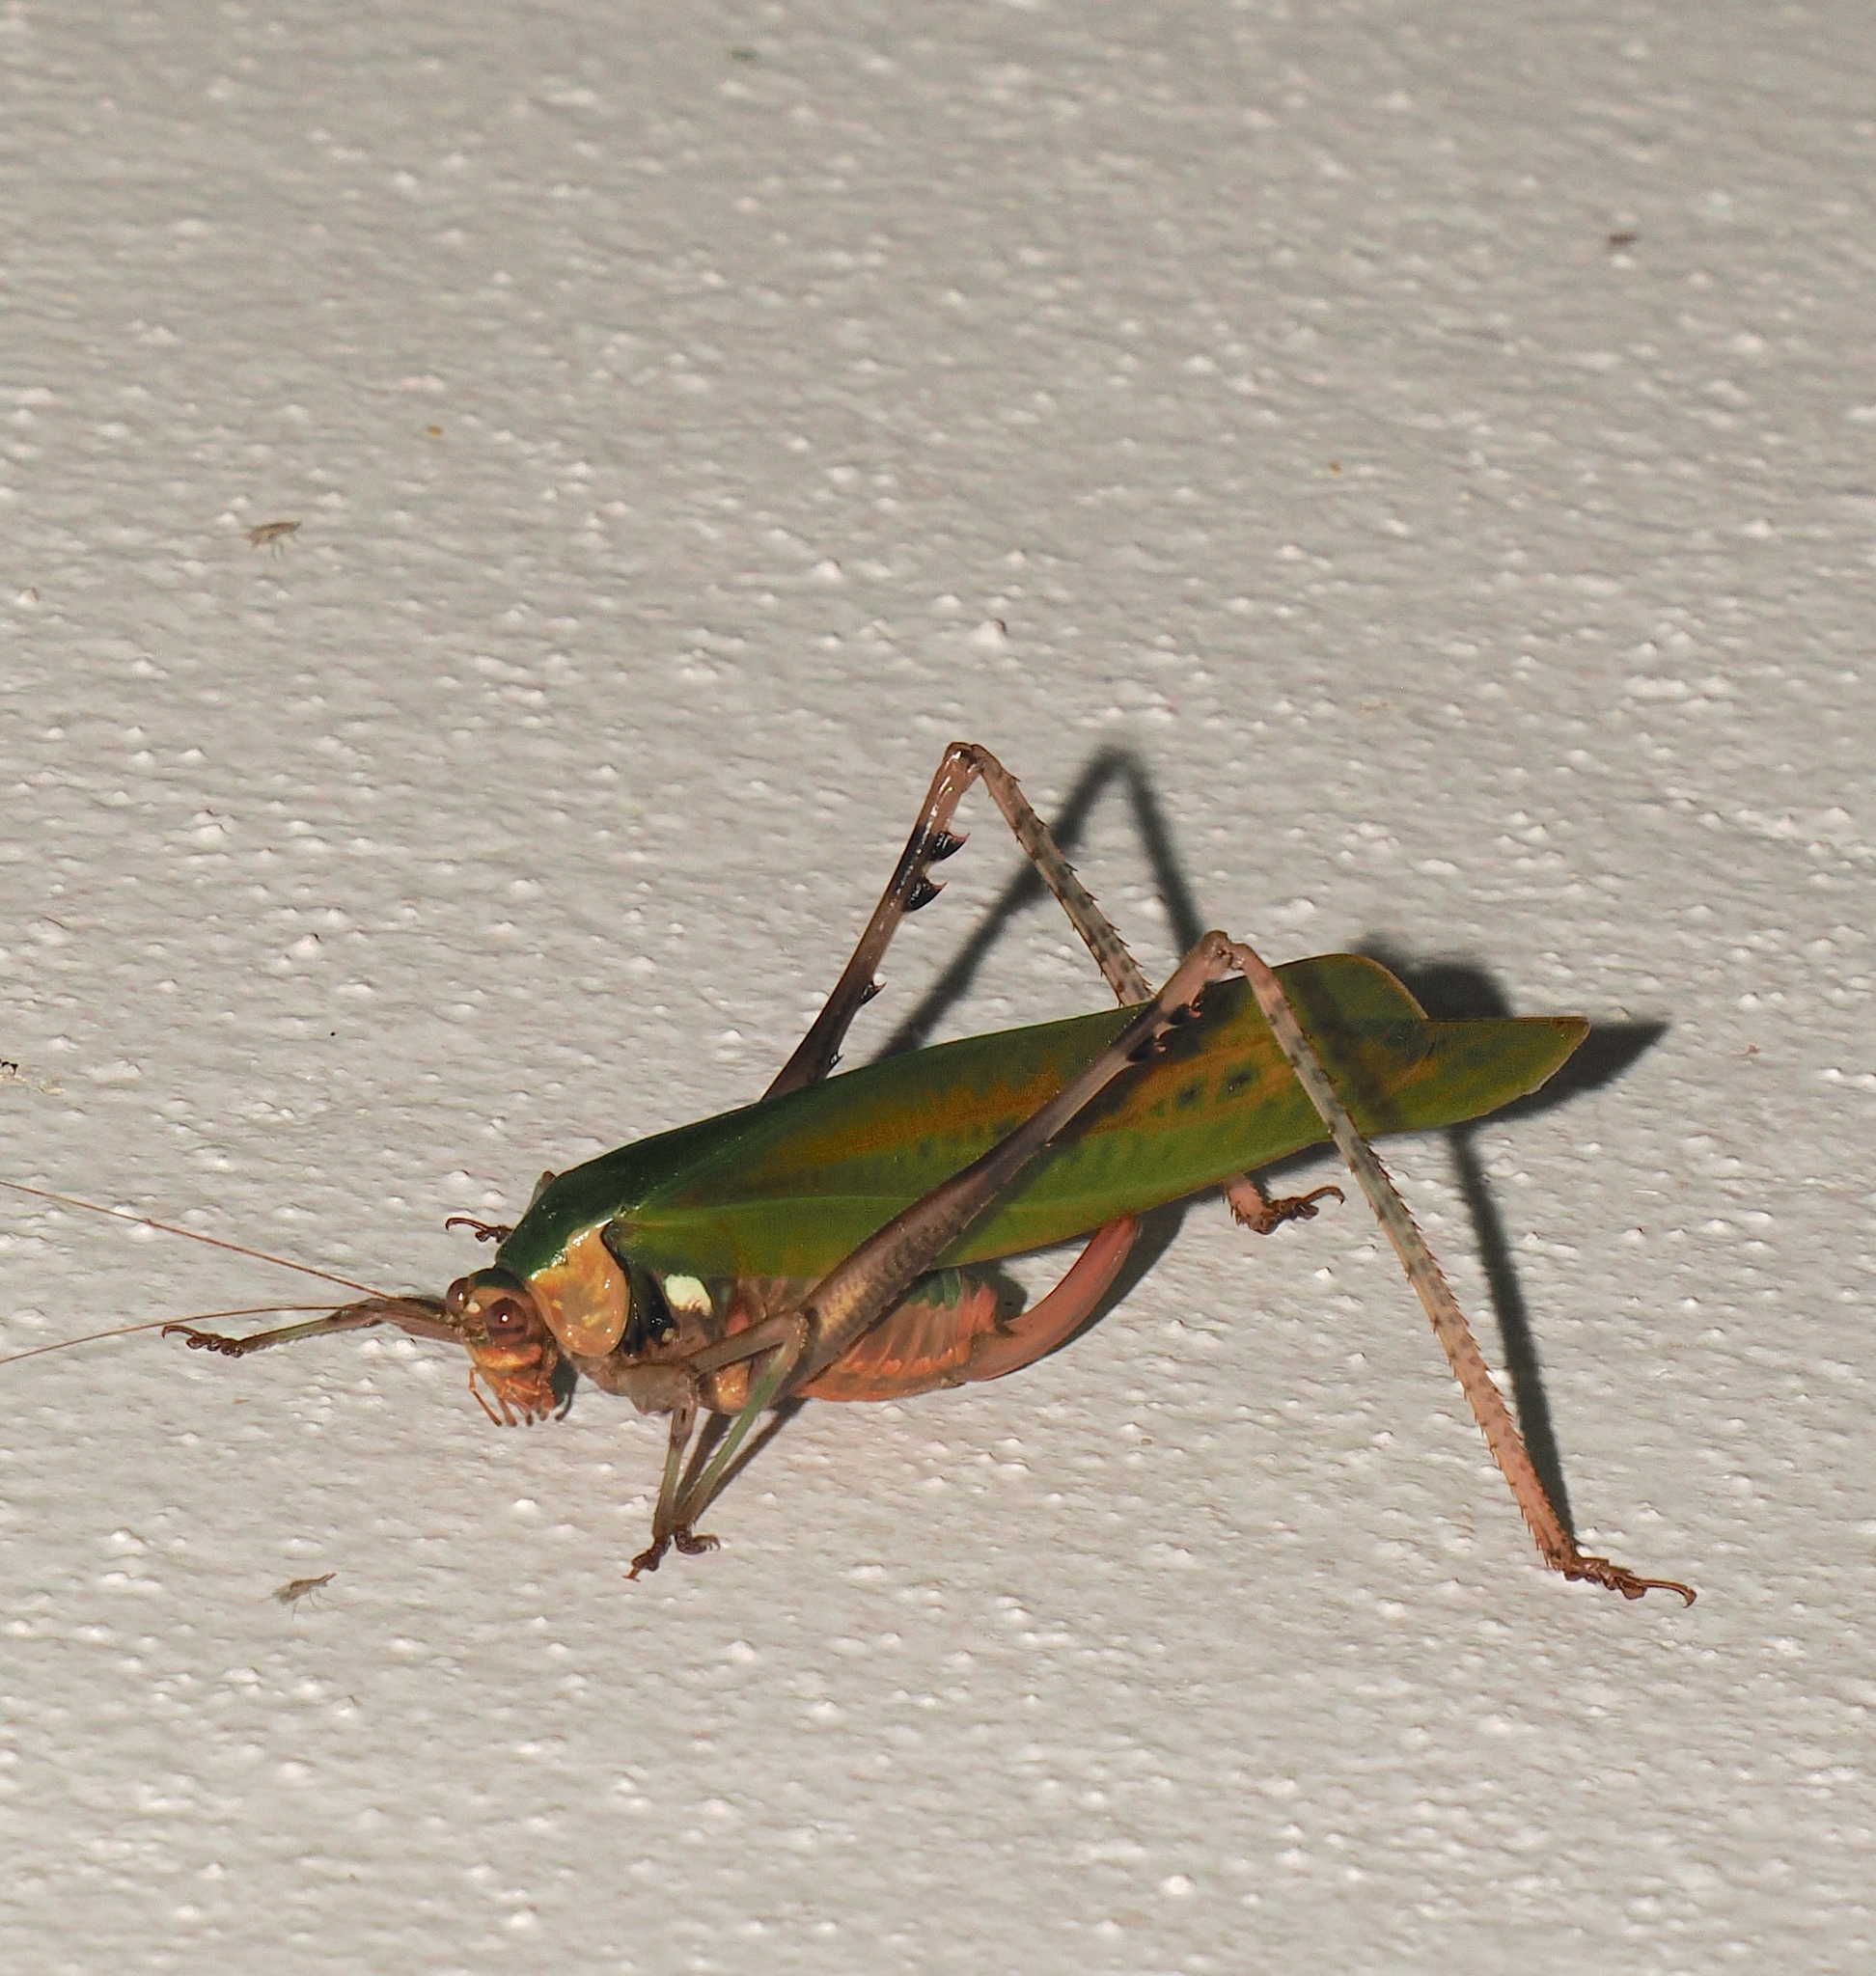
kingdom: Animalia
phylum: Arthropoda
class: Insecta
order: Orthoptera
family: Tettigoniidae
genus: Vellea
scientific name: Vellea cruenta
